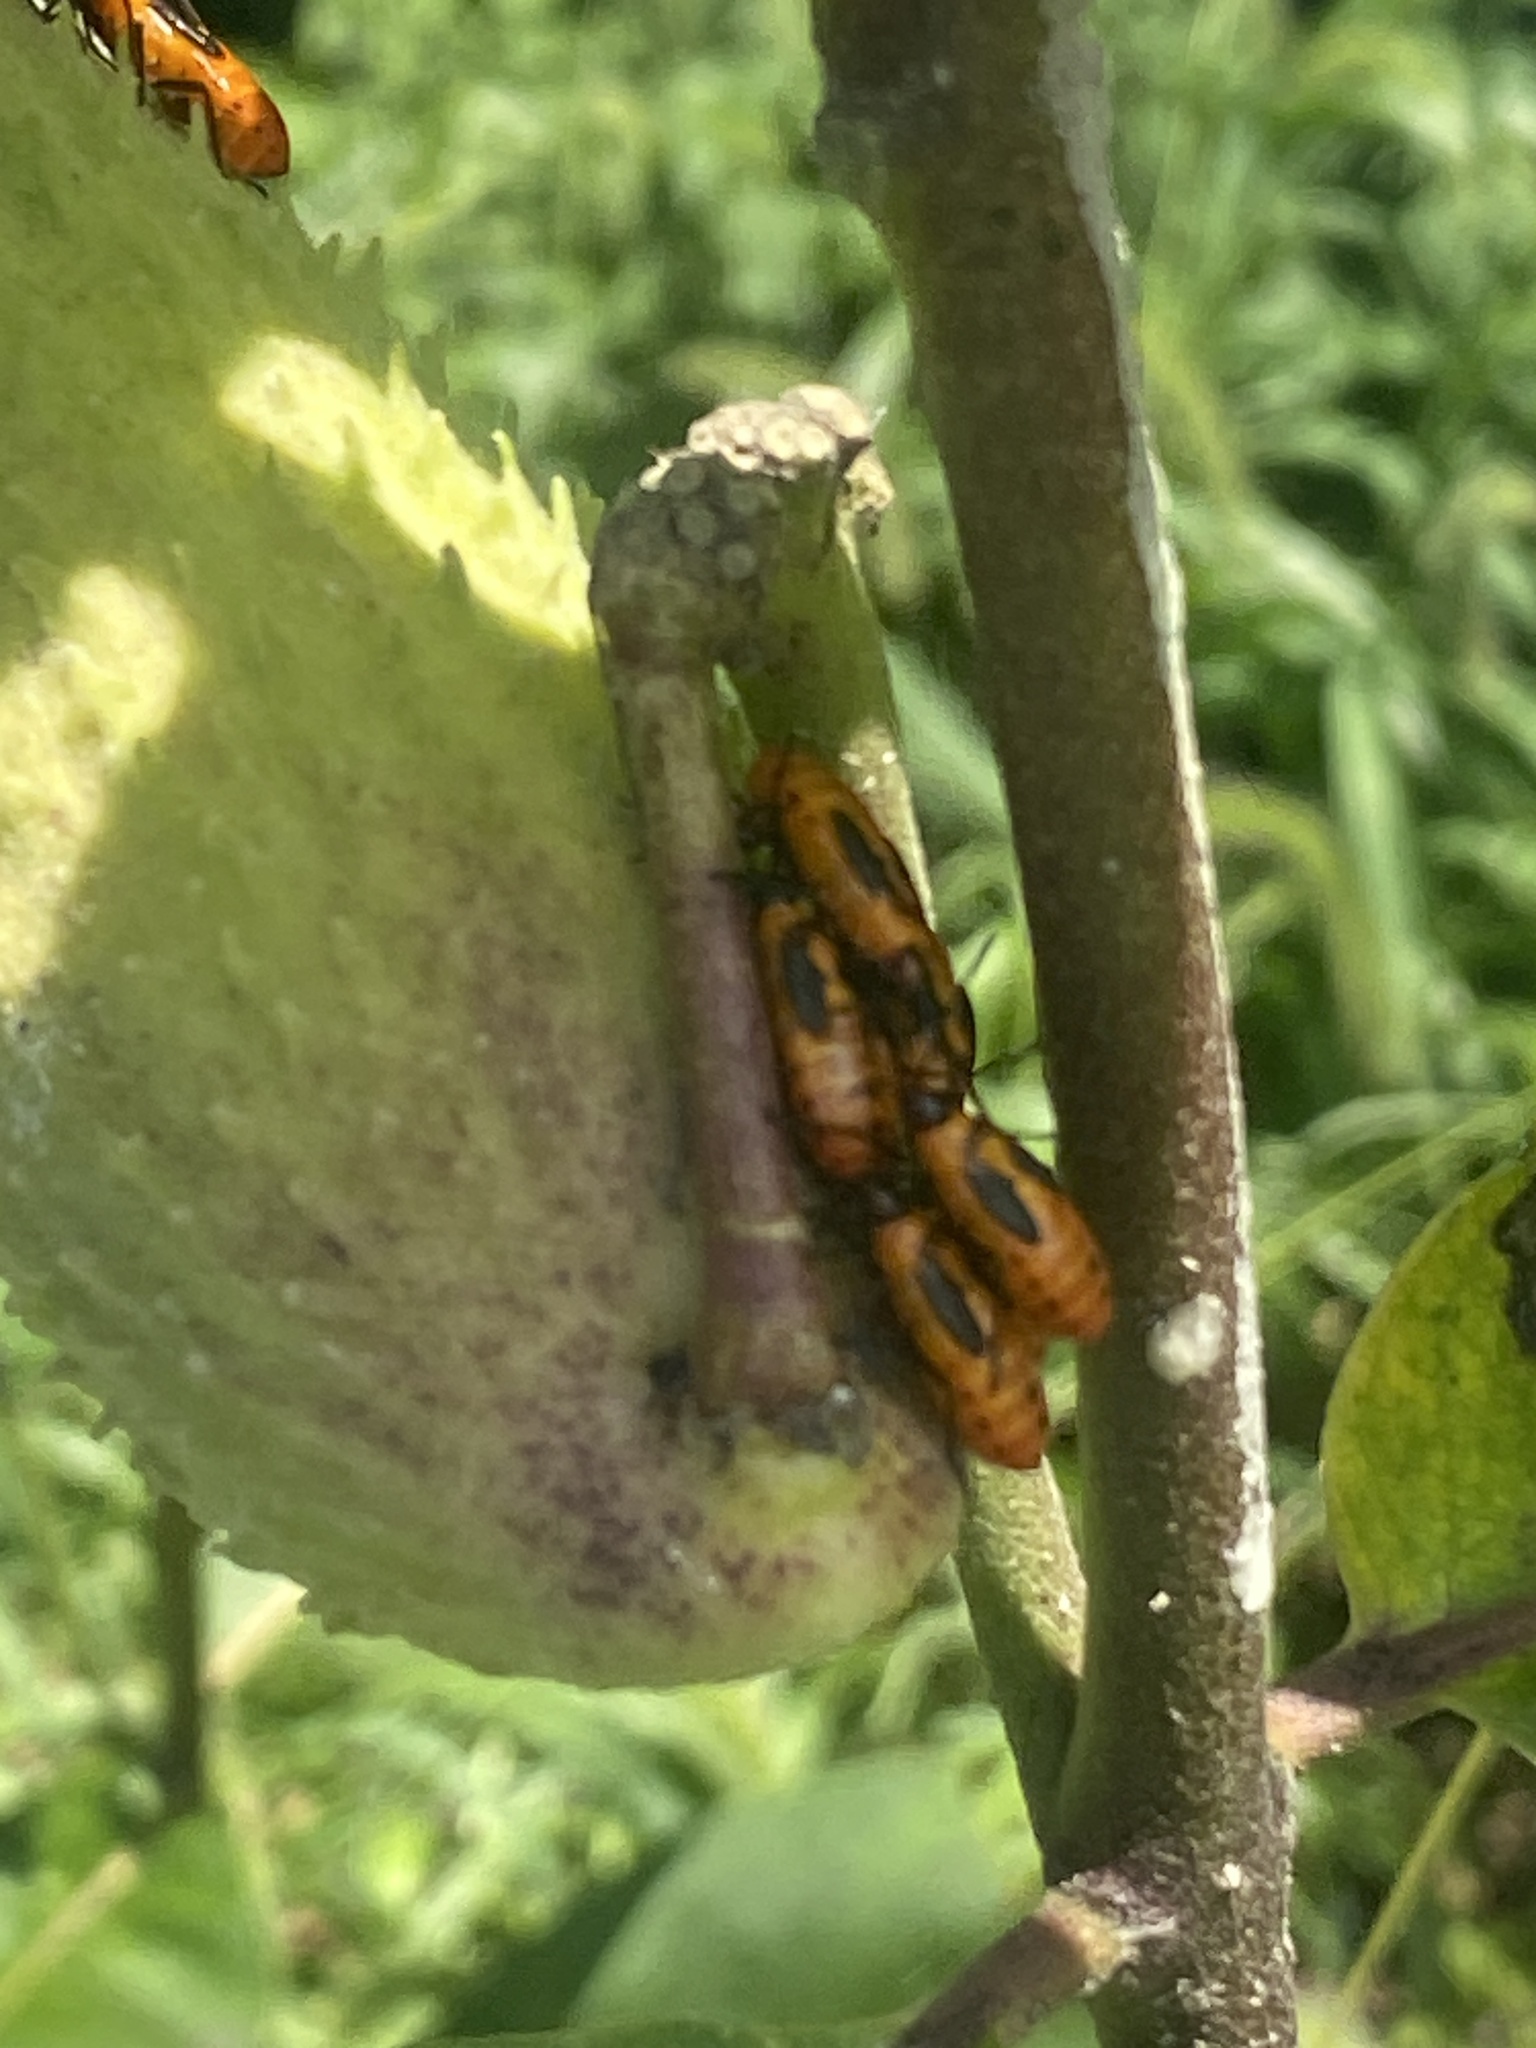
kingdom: Animalia
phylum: Arthropoda
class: Insecta
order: Hemiptera
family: Lygaeidae
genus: Oncopeltus
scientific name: Oncopeltus fasciatus
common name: Large milkweed bug
